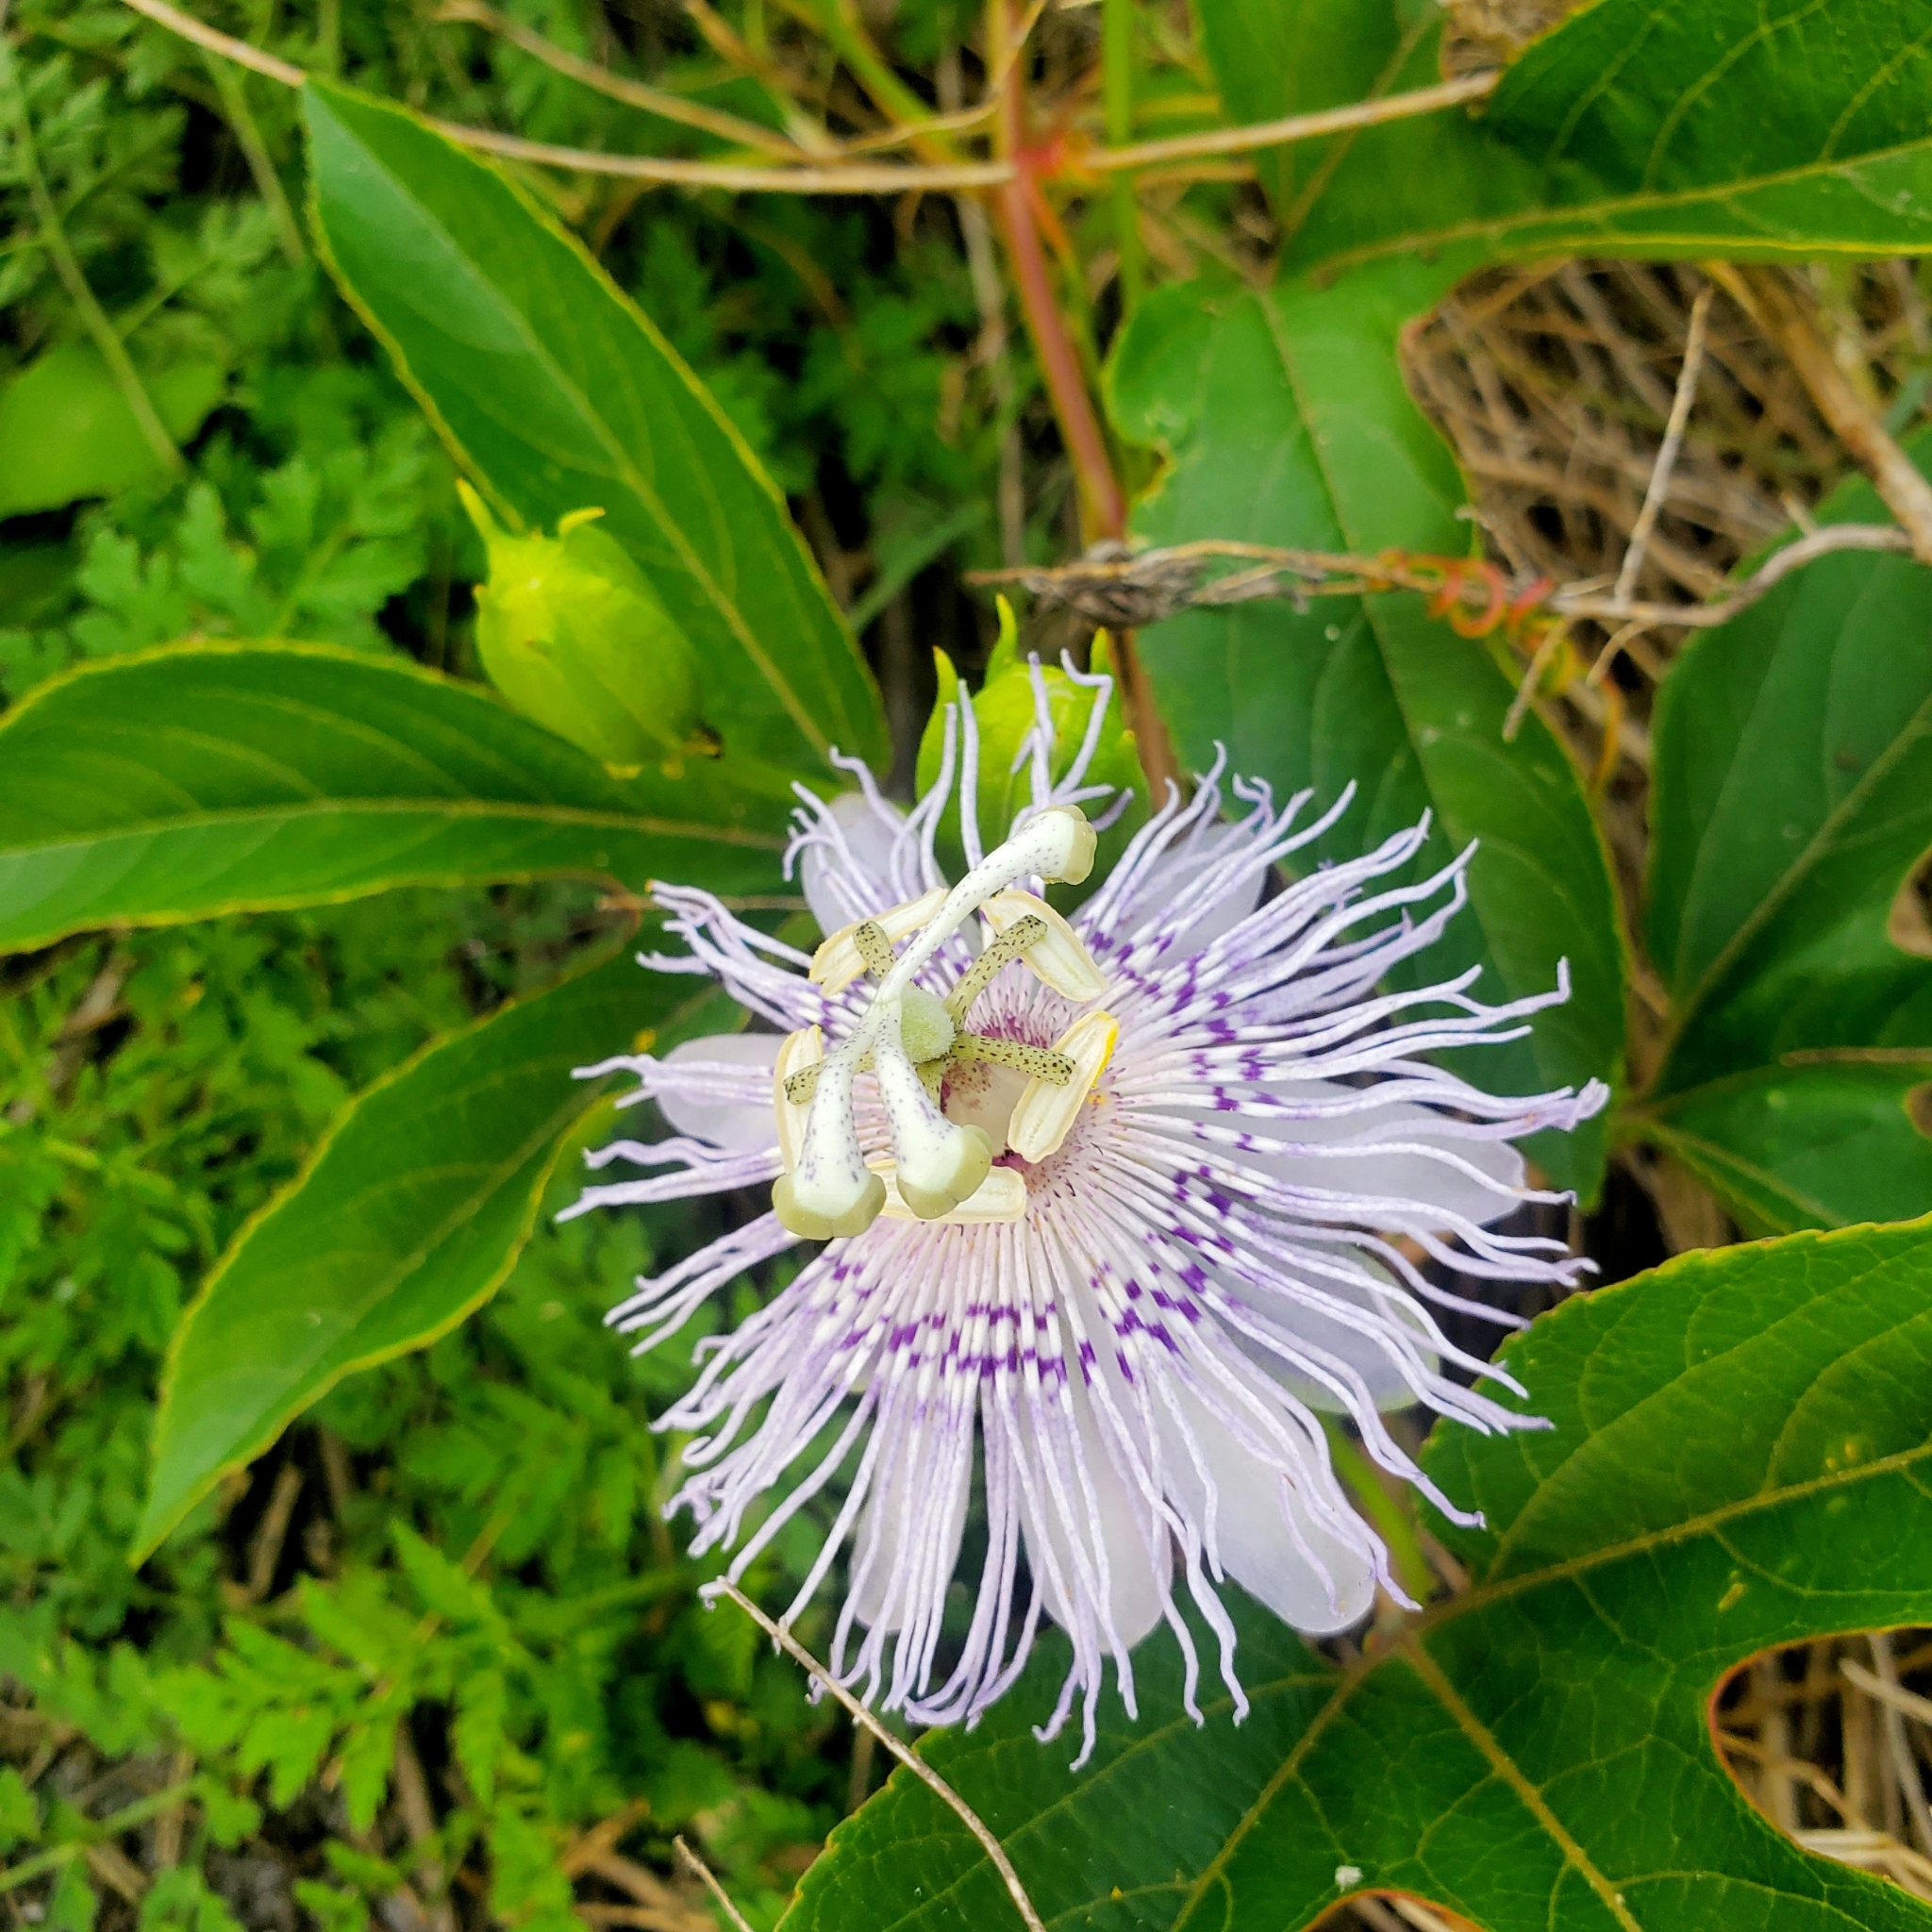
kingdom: Plantae
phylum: Tracheophyta
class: Magnoliopsida
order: Malpighiales
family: Passifloraceae
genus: Passiflora
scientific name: Passiflora incarnata
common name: Apricot-vine
